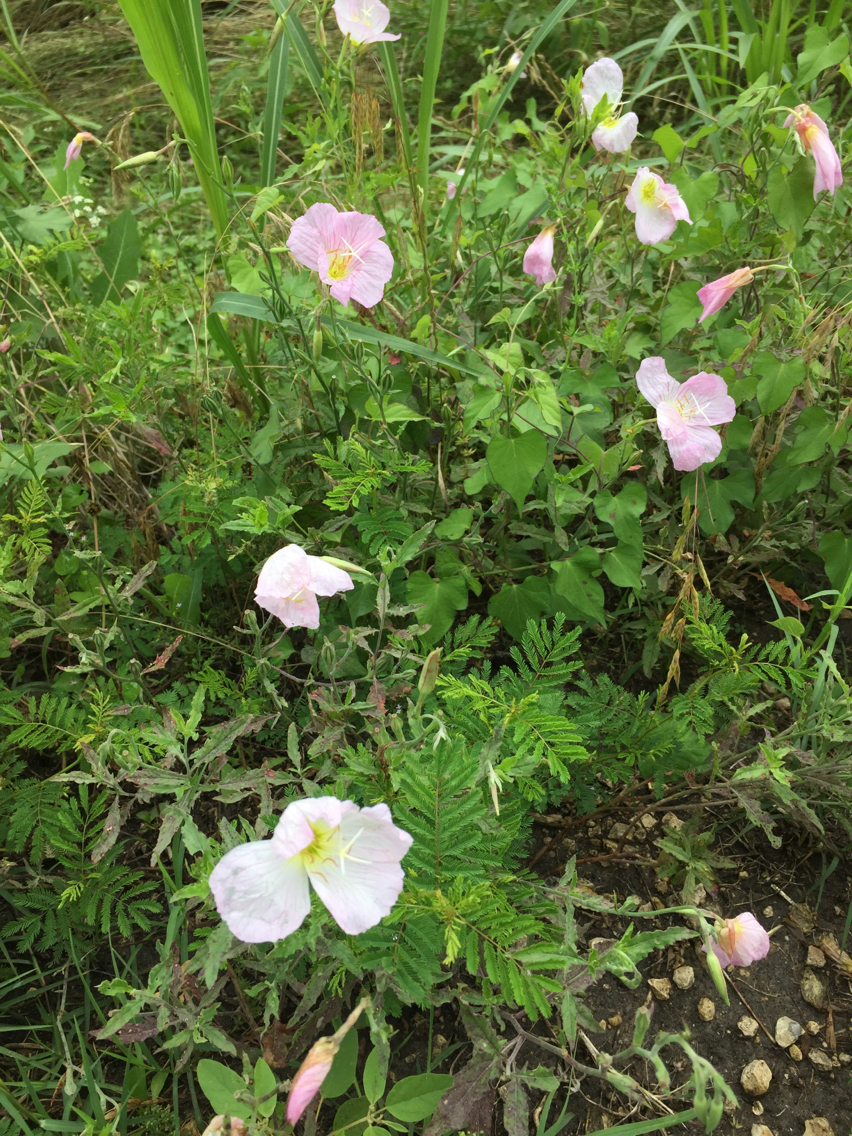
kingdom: Plantae
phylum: Tracheophyta
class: Magnoliopsida
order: Myrtales
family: Onagraceae
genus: Oenothera
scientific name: Oenothera speciosa
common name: White evening-primrose
